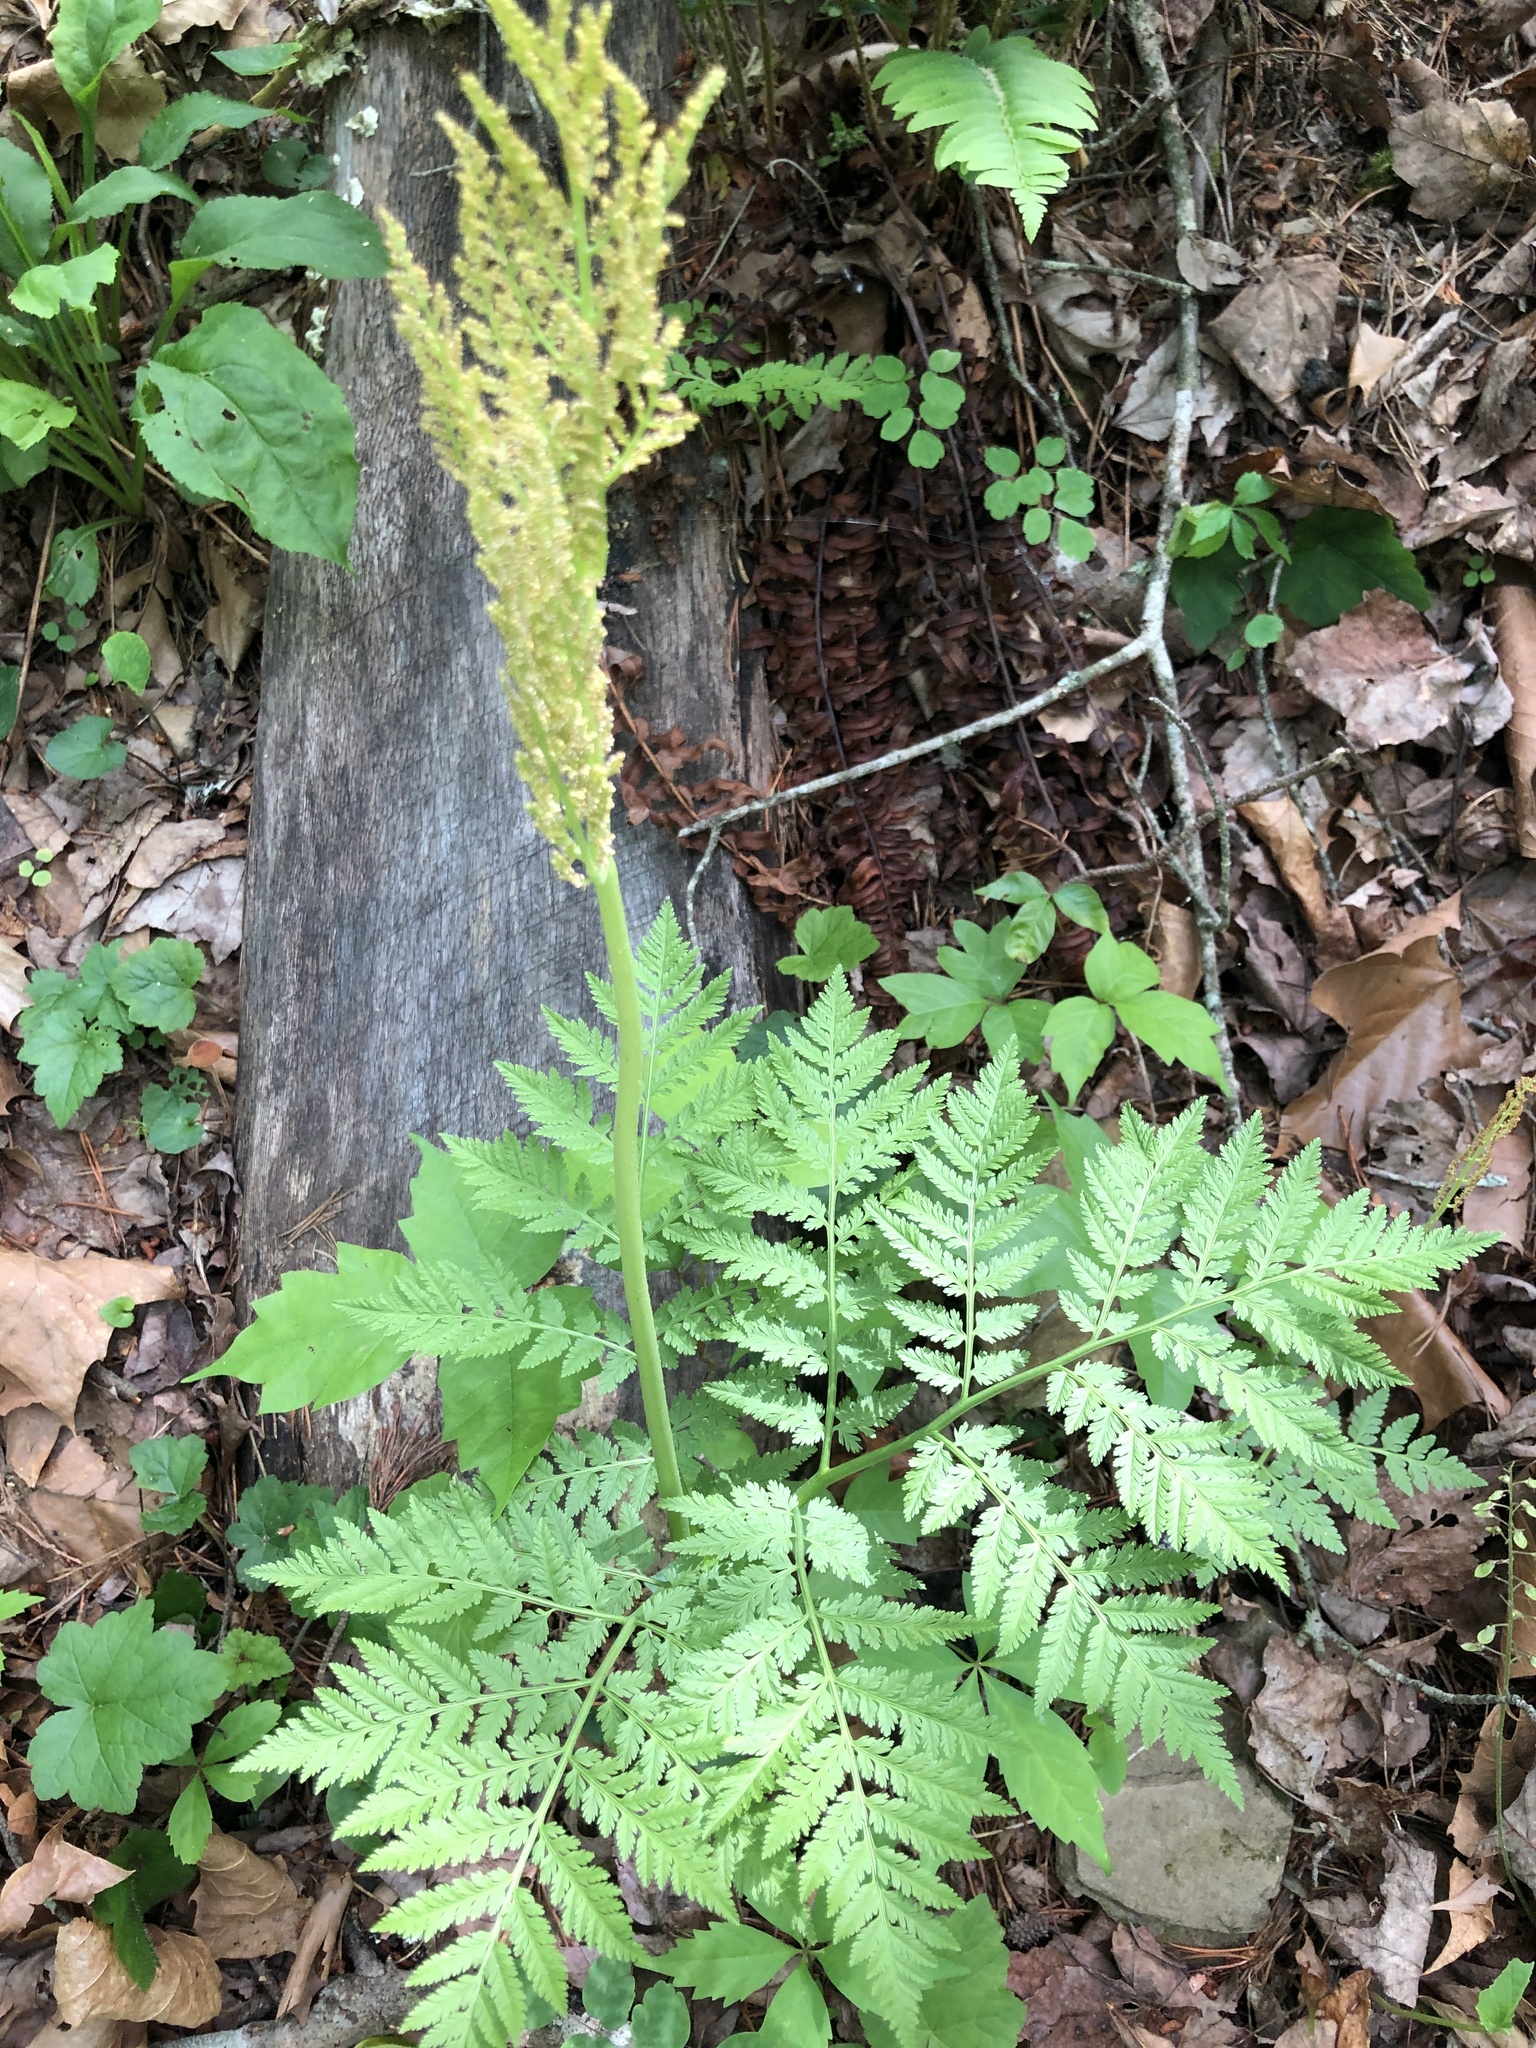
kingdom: Plantae
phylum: Tracheophyta
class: Polypodiopsida
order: Ophioglossales
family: Ophioglossaceae
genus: Botrypus
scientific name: Botrypus virginianus
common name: Common grapefern
